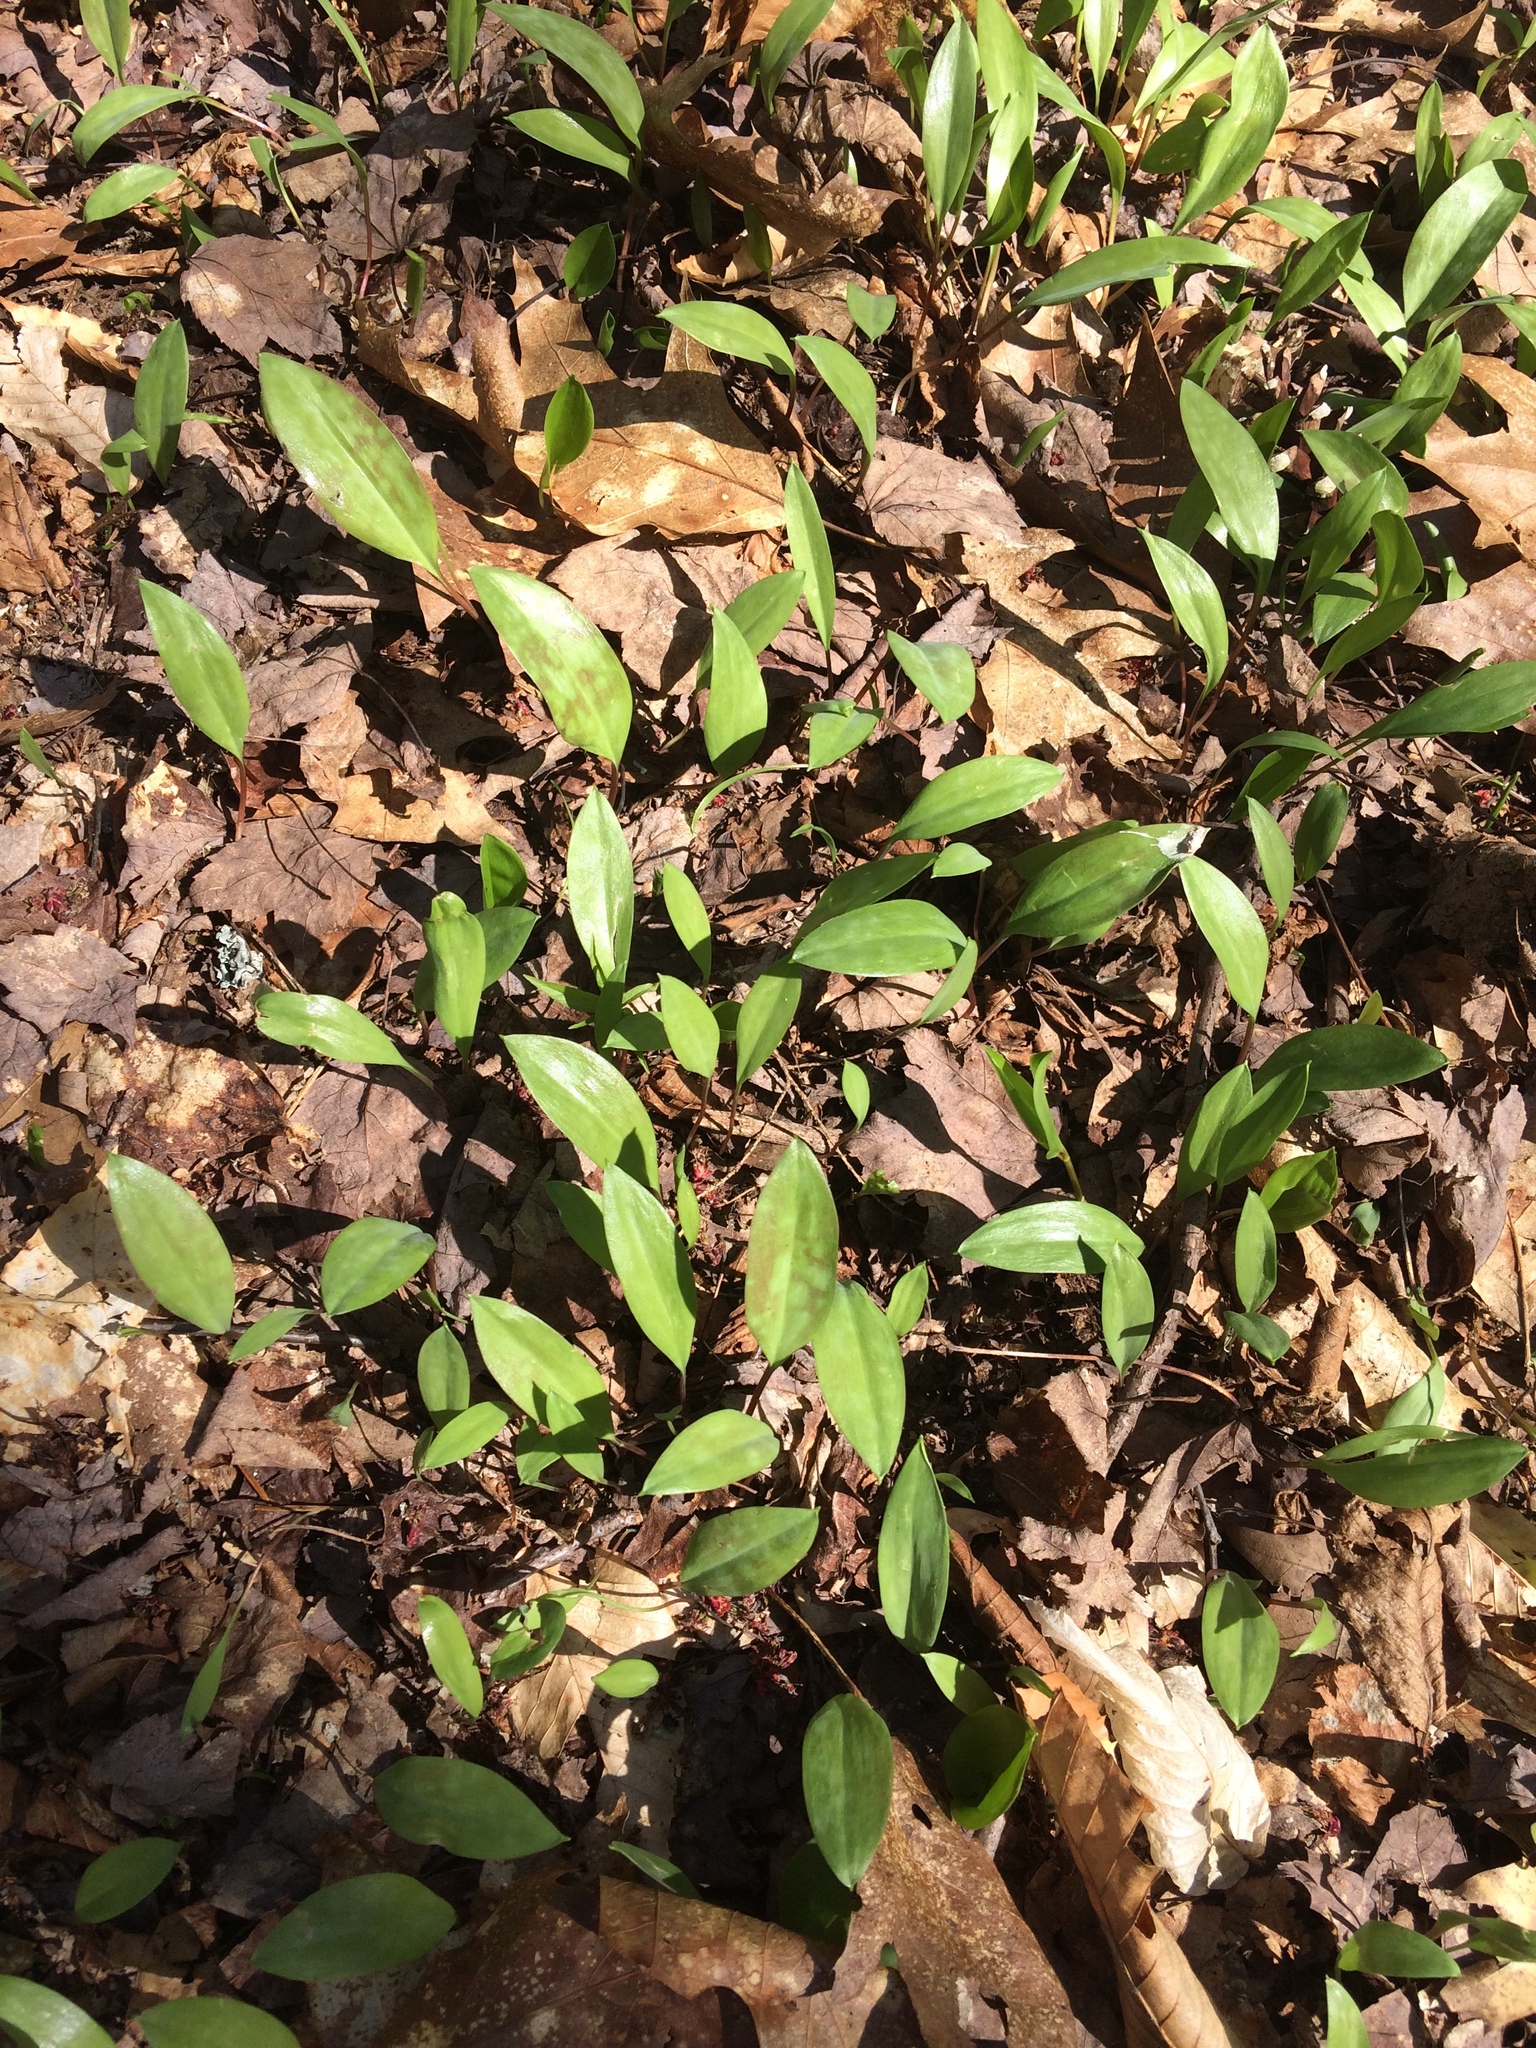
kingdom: Plantae
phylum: Tracheophyta
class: Liliopsida
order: Liliales
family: Liliaceae
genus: Erythronium
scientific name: Erythronium americanum
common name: Yellow adder's-tongue
